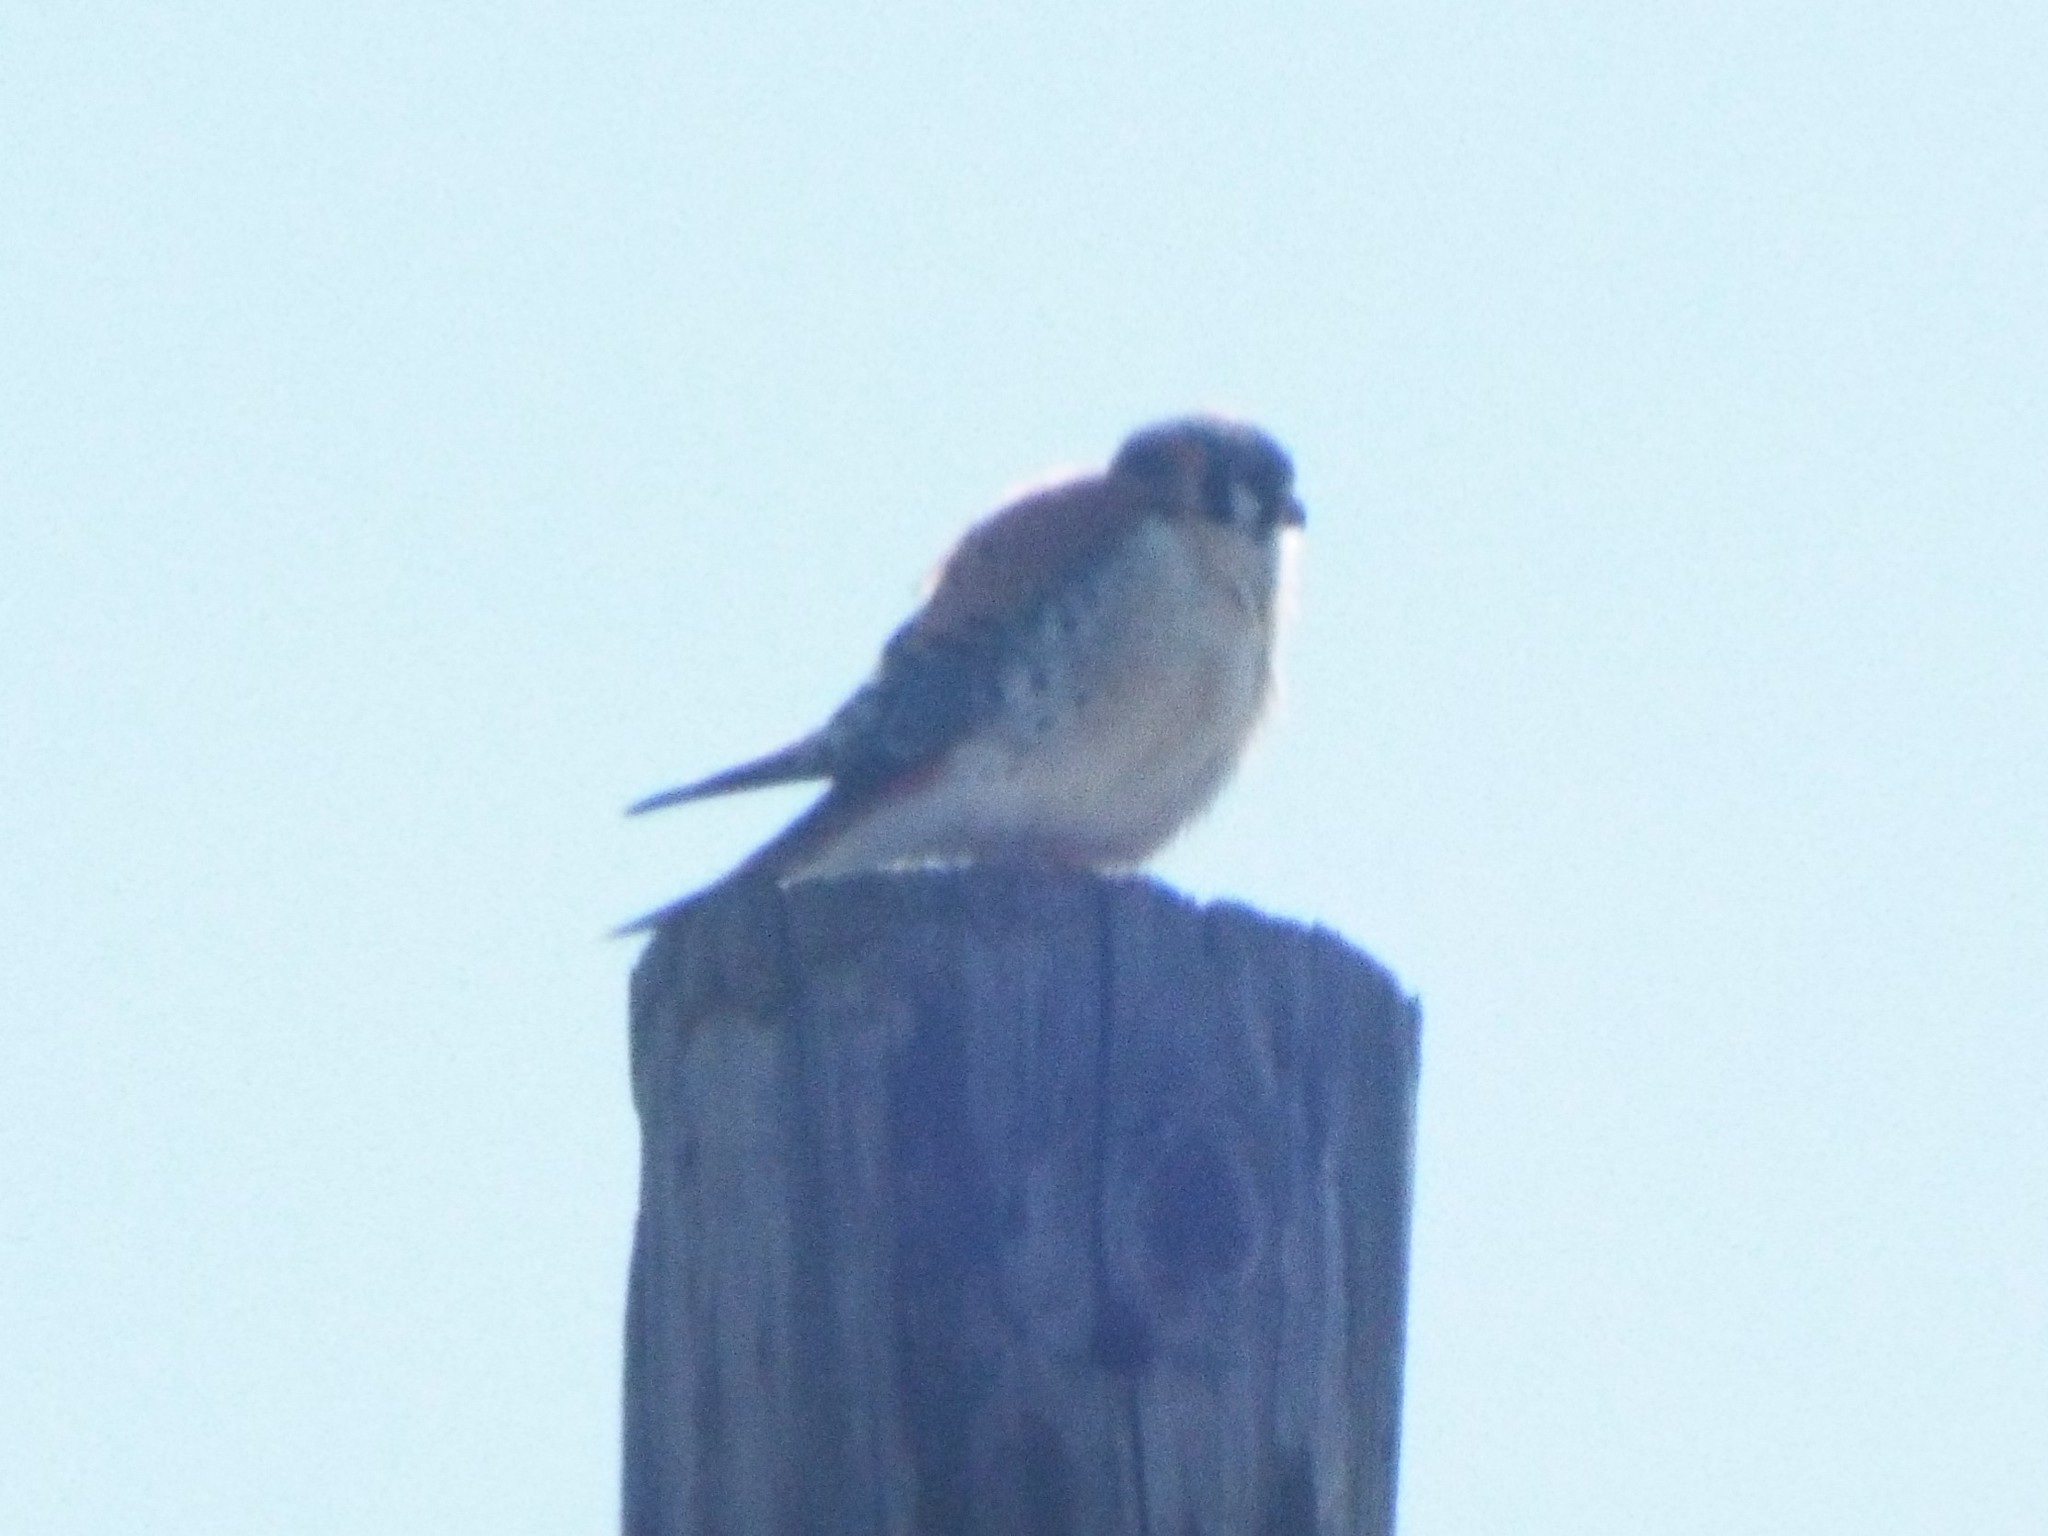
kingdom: Animalia
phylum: Chordata
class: Aves
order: Falconiformes
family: Falconidae
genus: Falco
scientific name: Falco sparverius
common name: American kestrel
